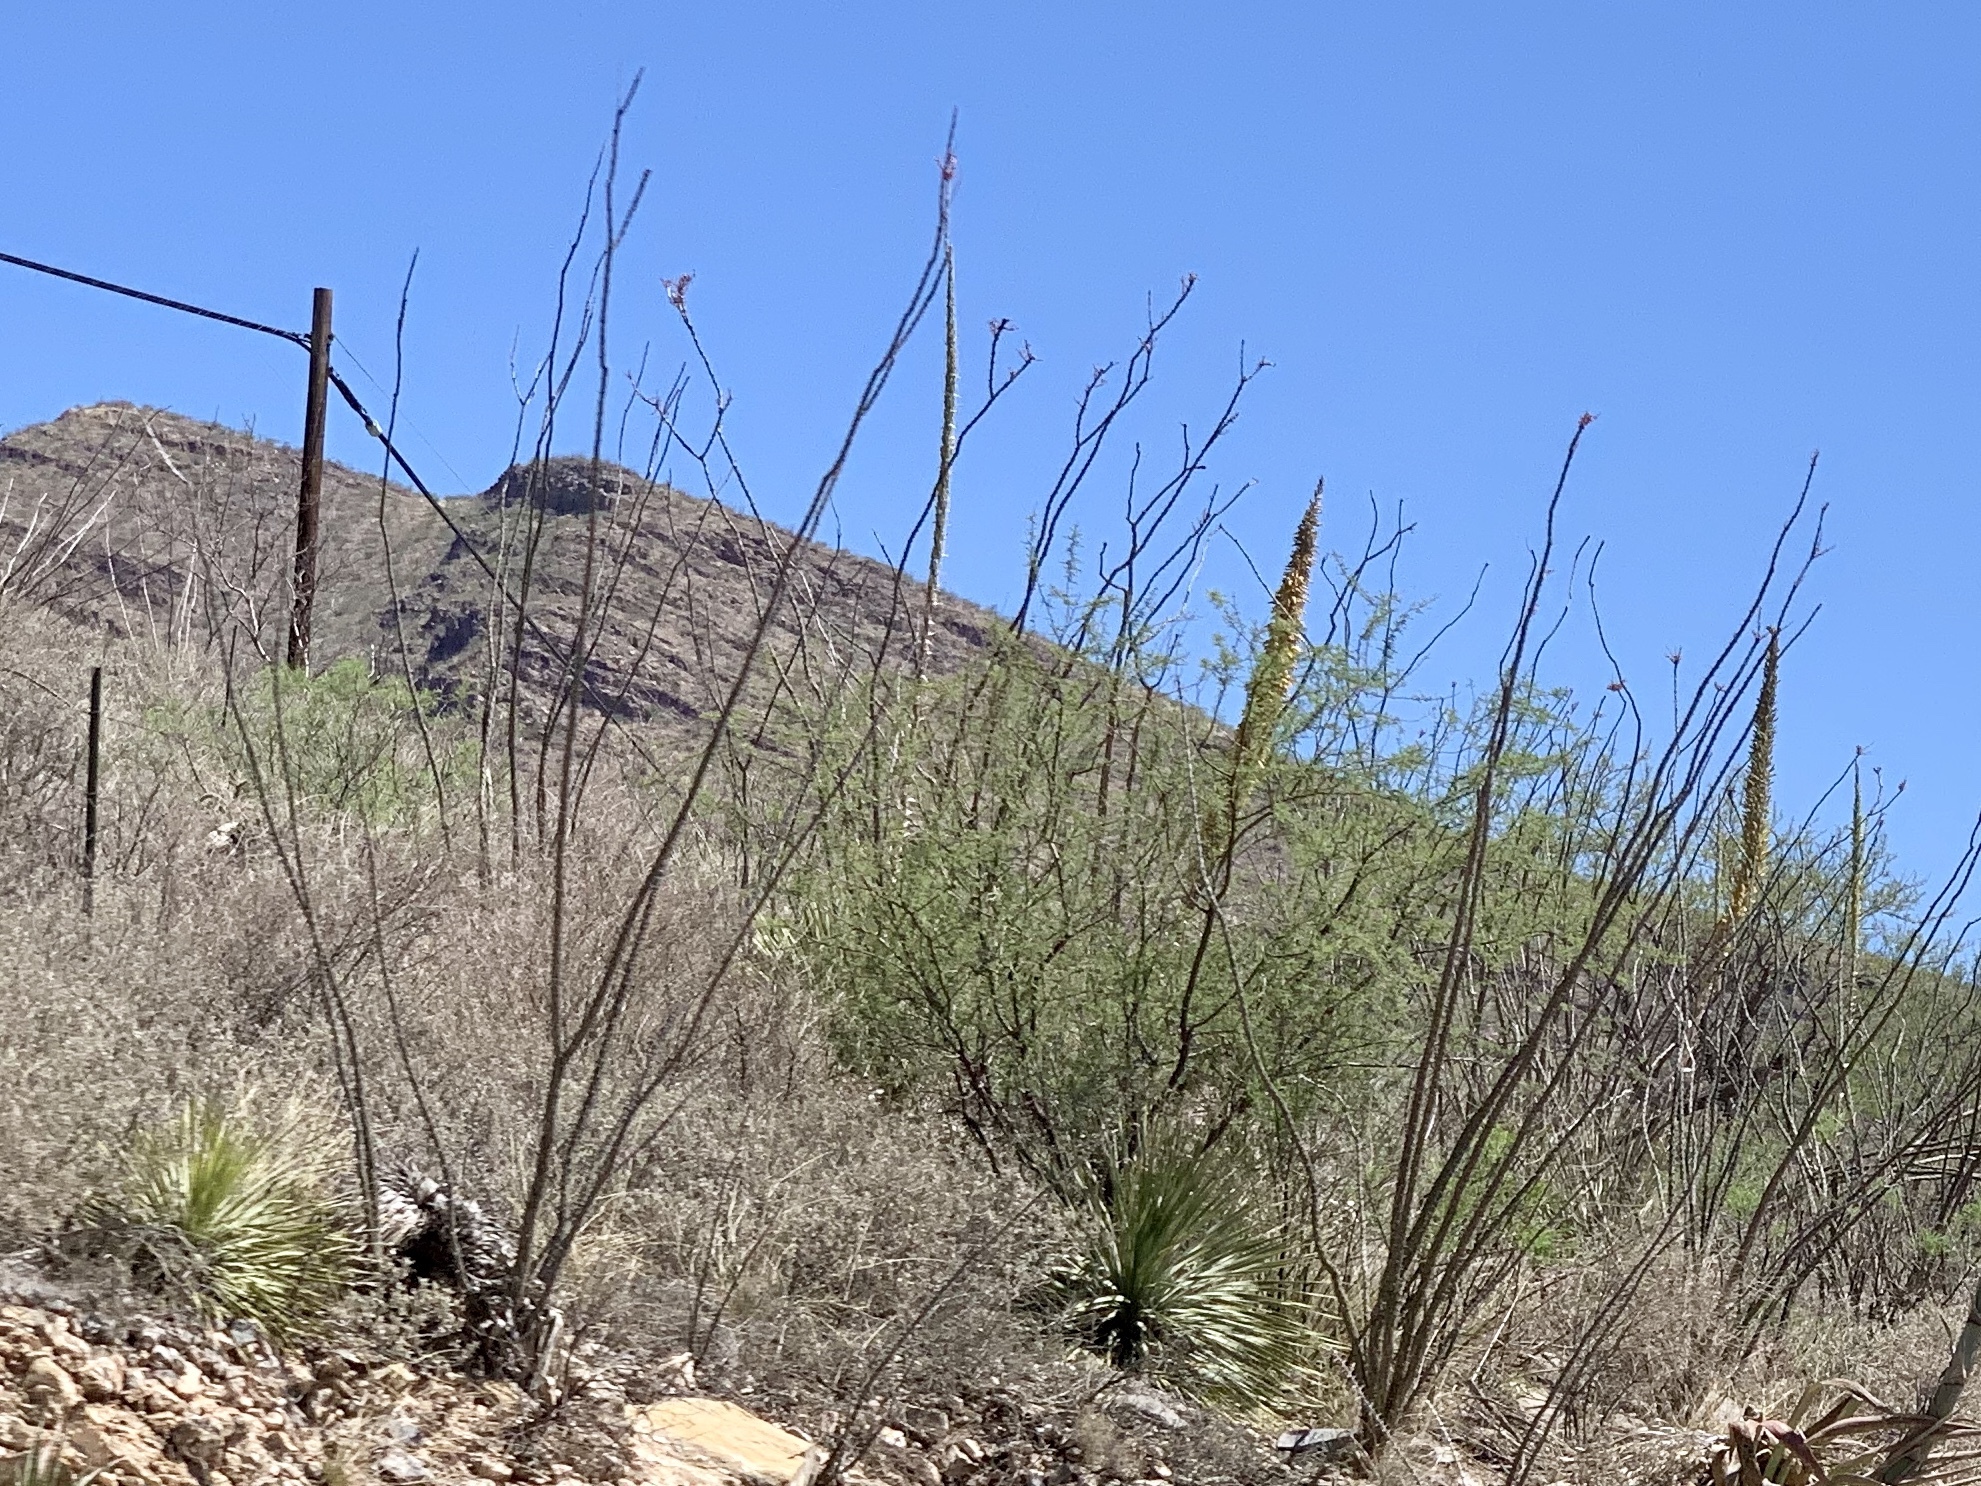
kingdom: Plantae
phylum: Tracheophyta
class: Magnoliopsida
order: Ericales
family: Fouquieriaceae
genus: Fouquieria
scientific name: Fouquieria splendens
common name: Vine-cactus
